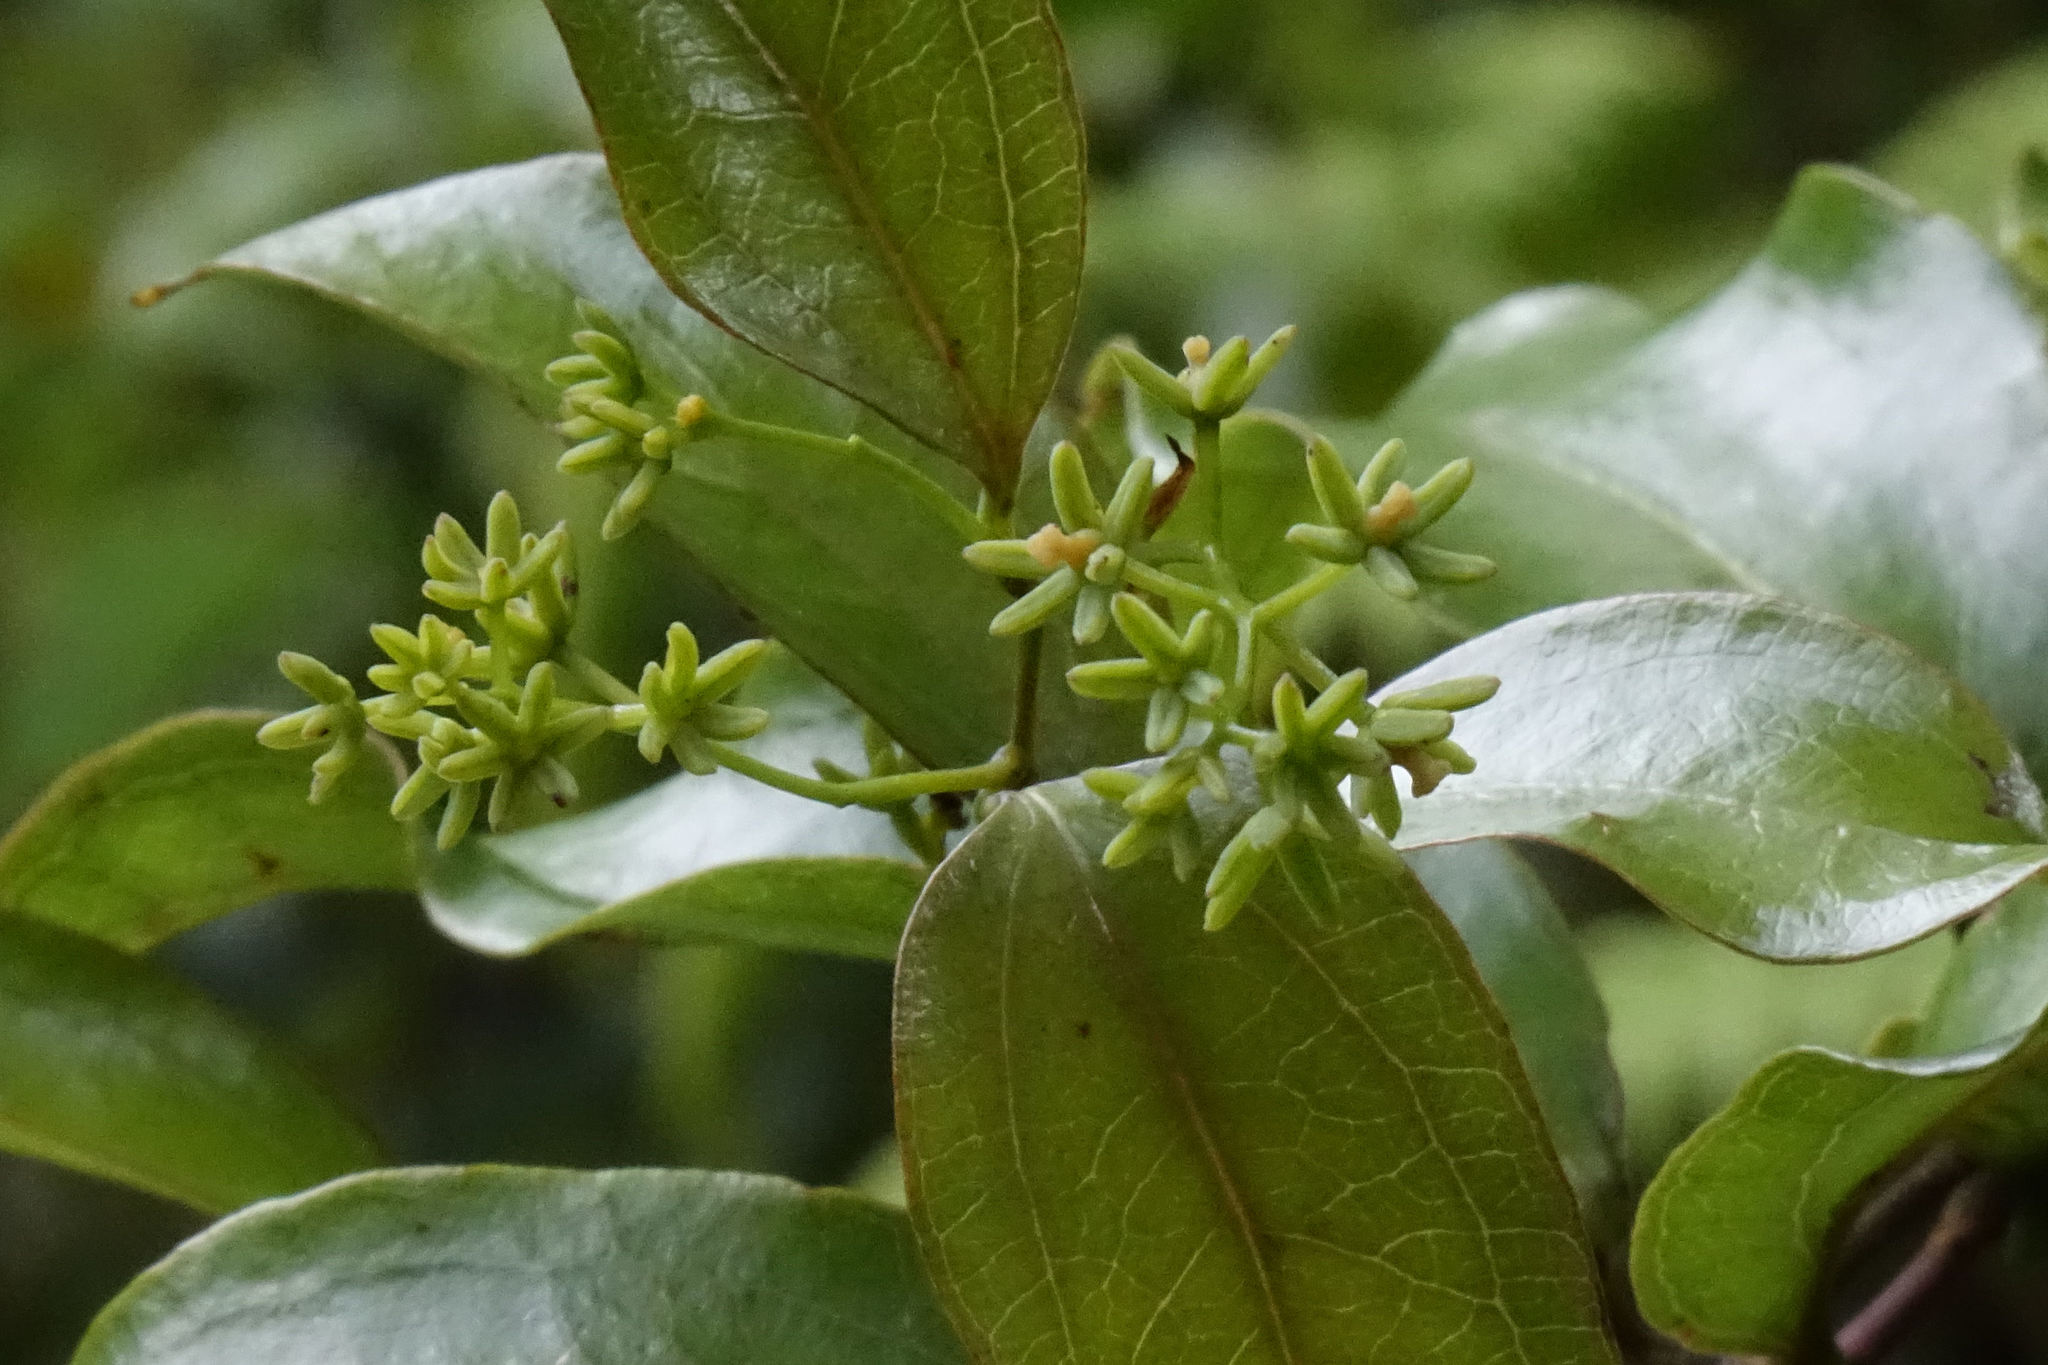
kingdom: Plantae
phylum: Tracheophyta
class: Liliopsida
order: Liliales
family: Ripogonaceae
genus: Ripogonum
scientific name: Ripogonum scandens
